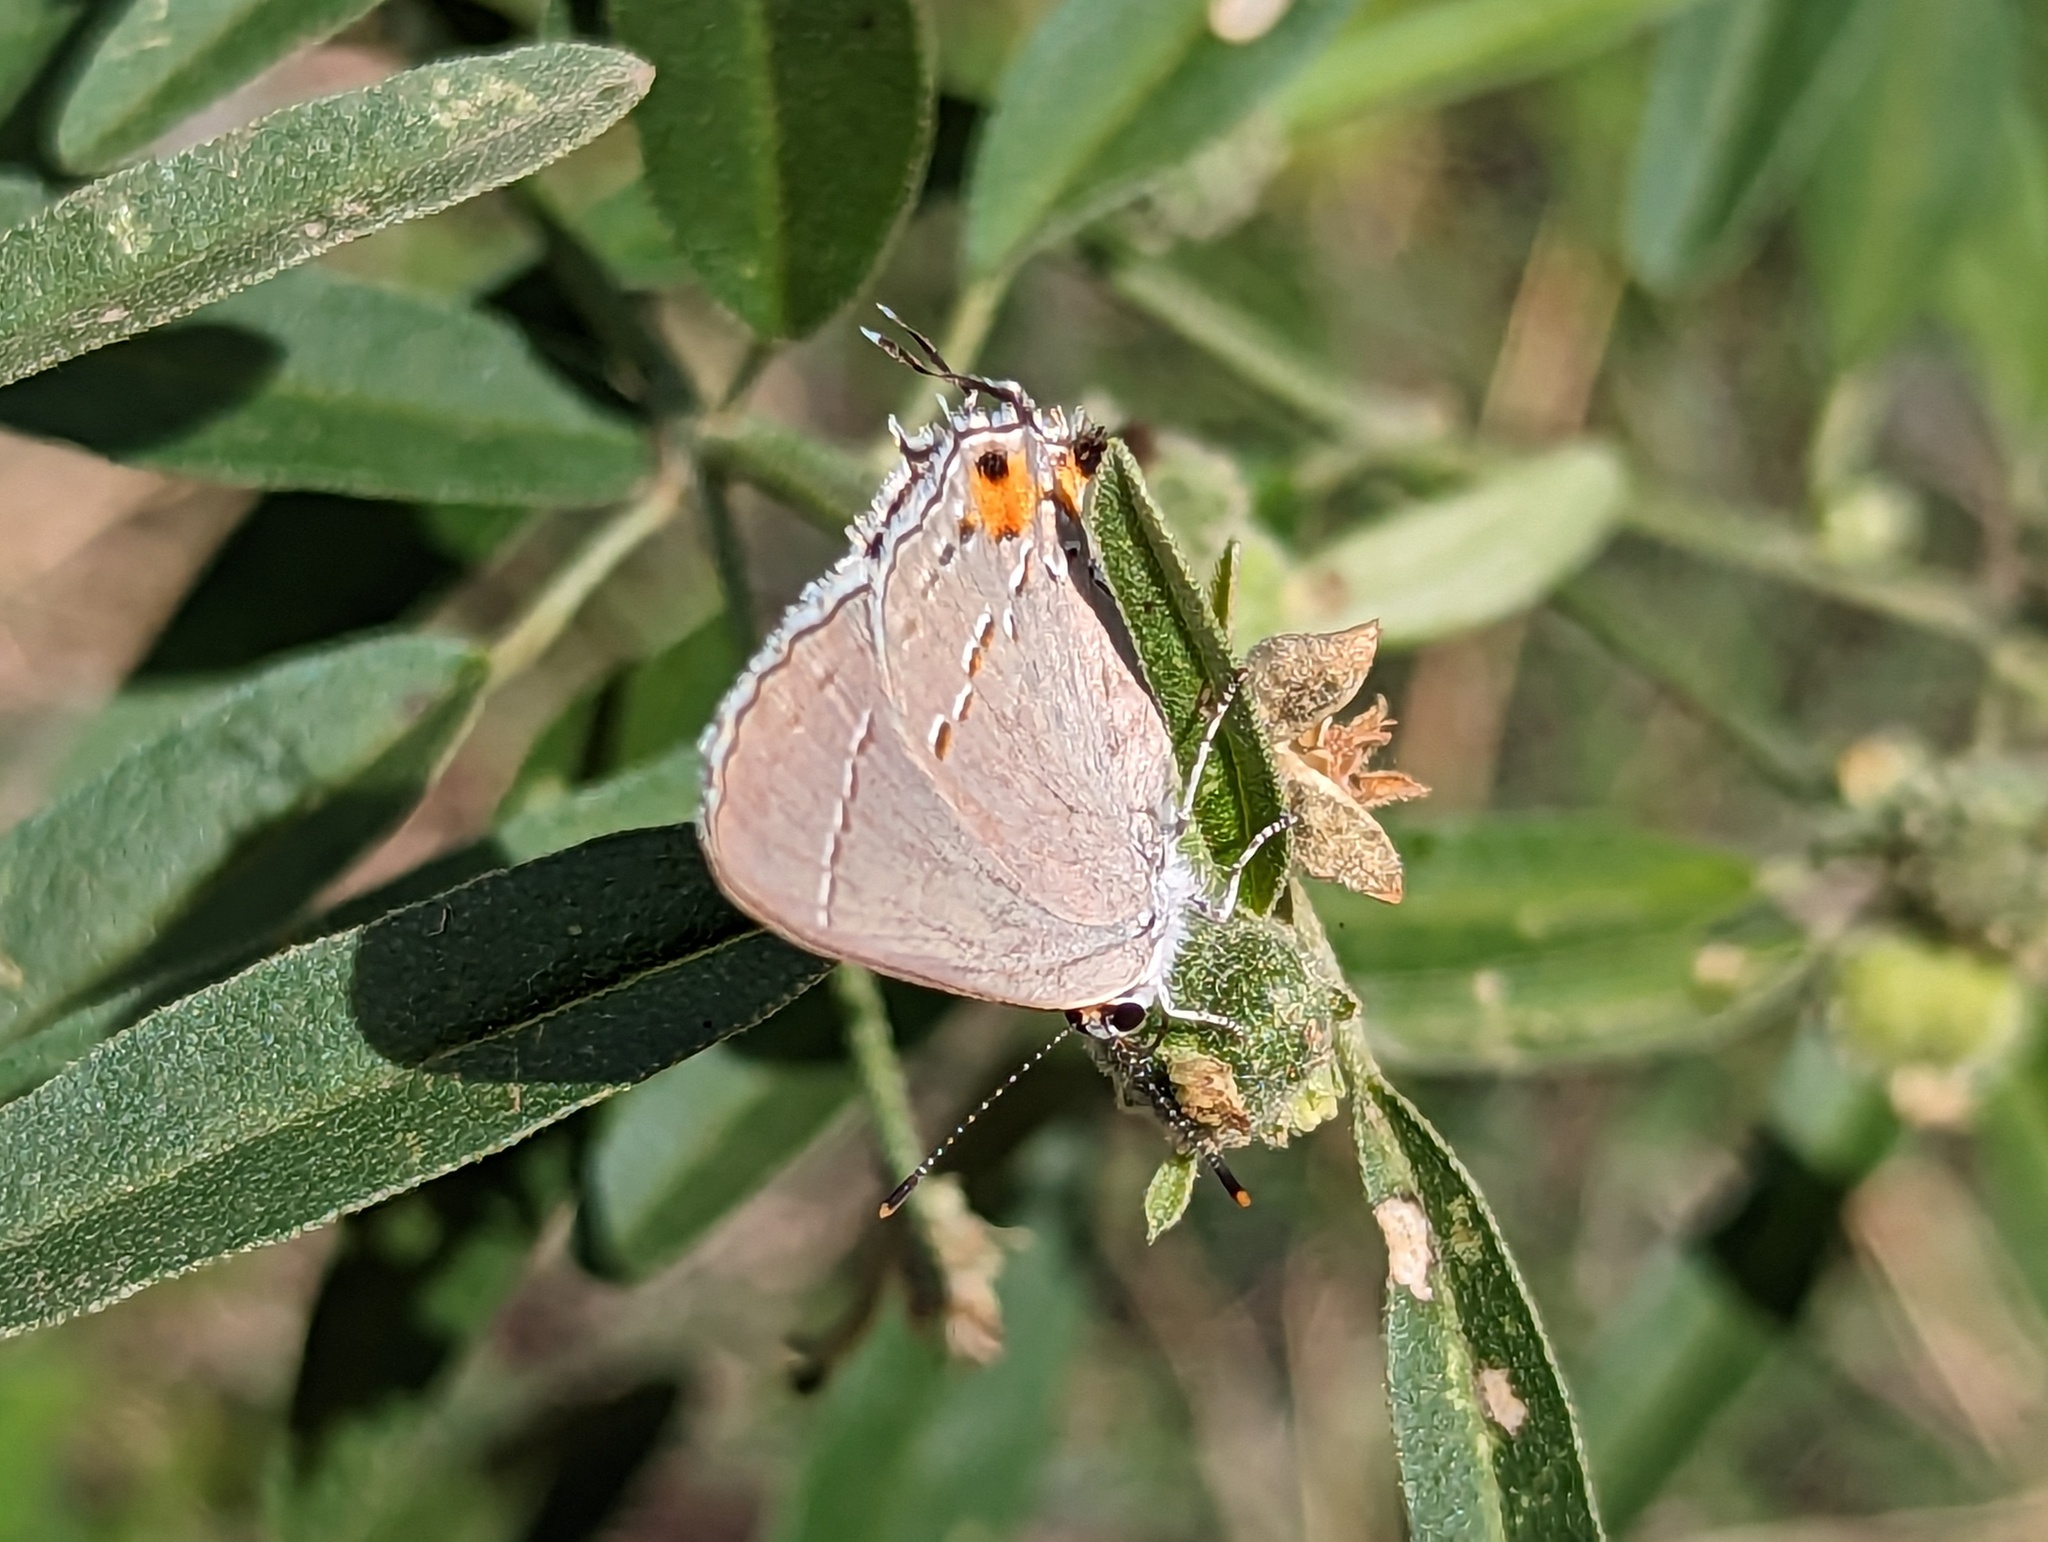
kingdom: Animalia
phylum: Arthropoda
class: Insecta
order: Lepidoptera
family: Lycaenidae
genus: Strymon
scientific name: Strymon melinus
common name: Gray hairstreak
